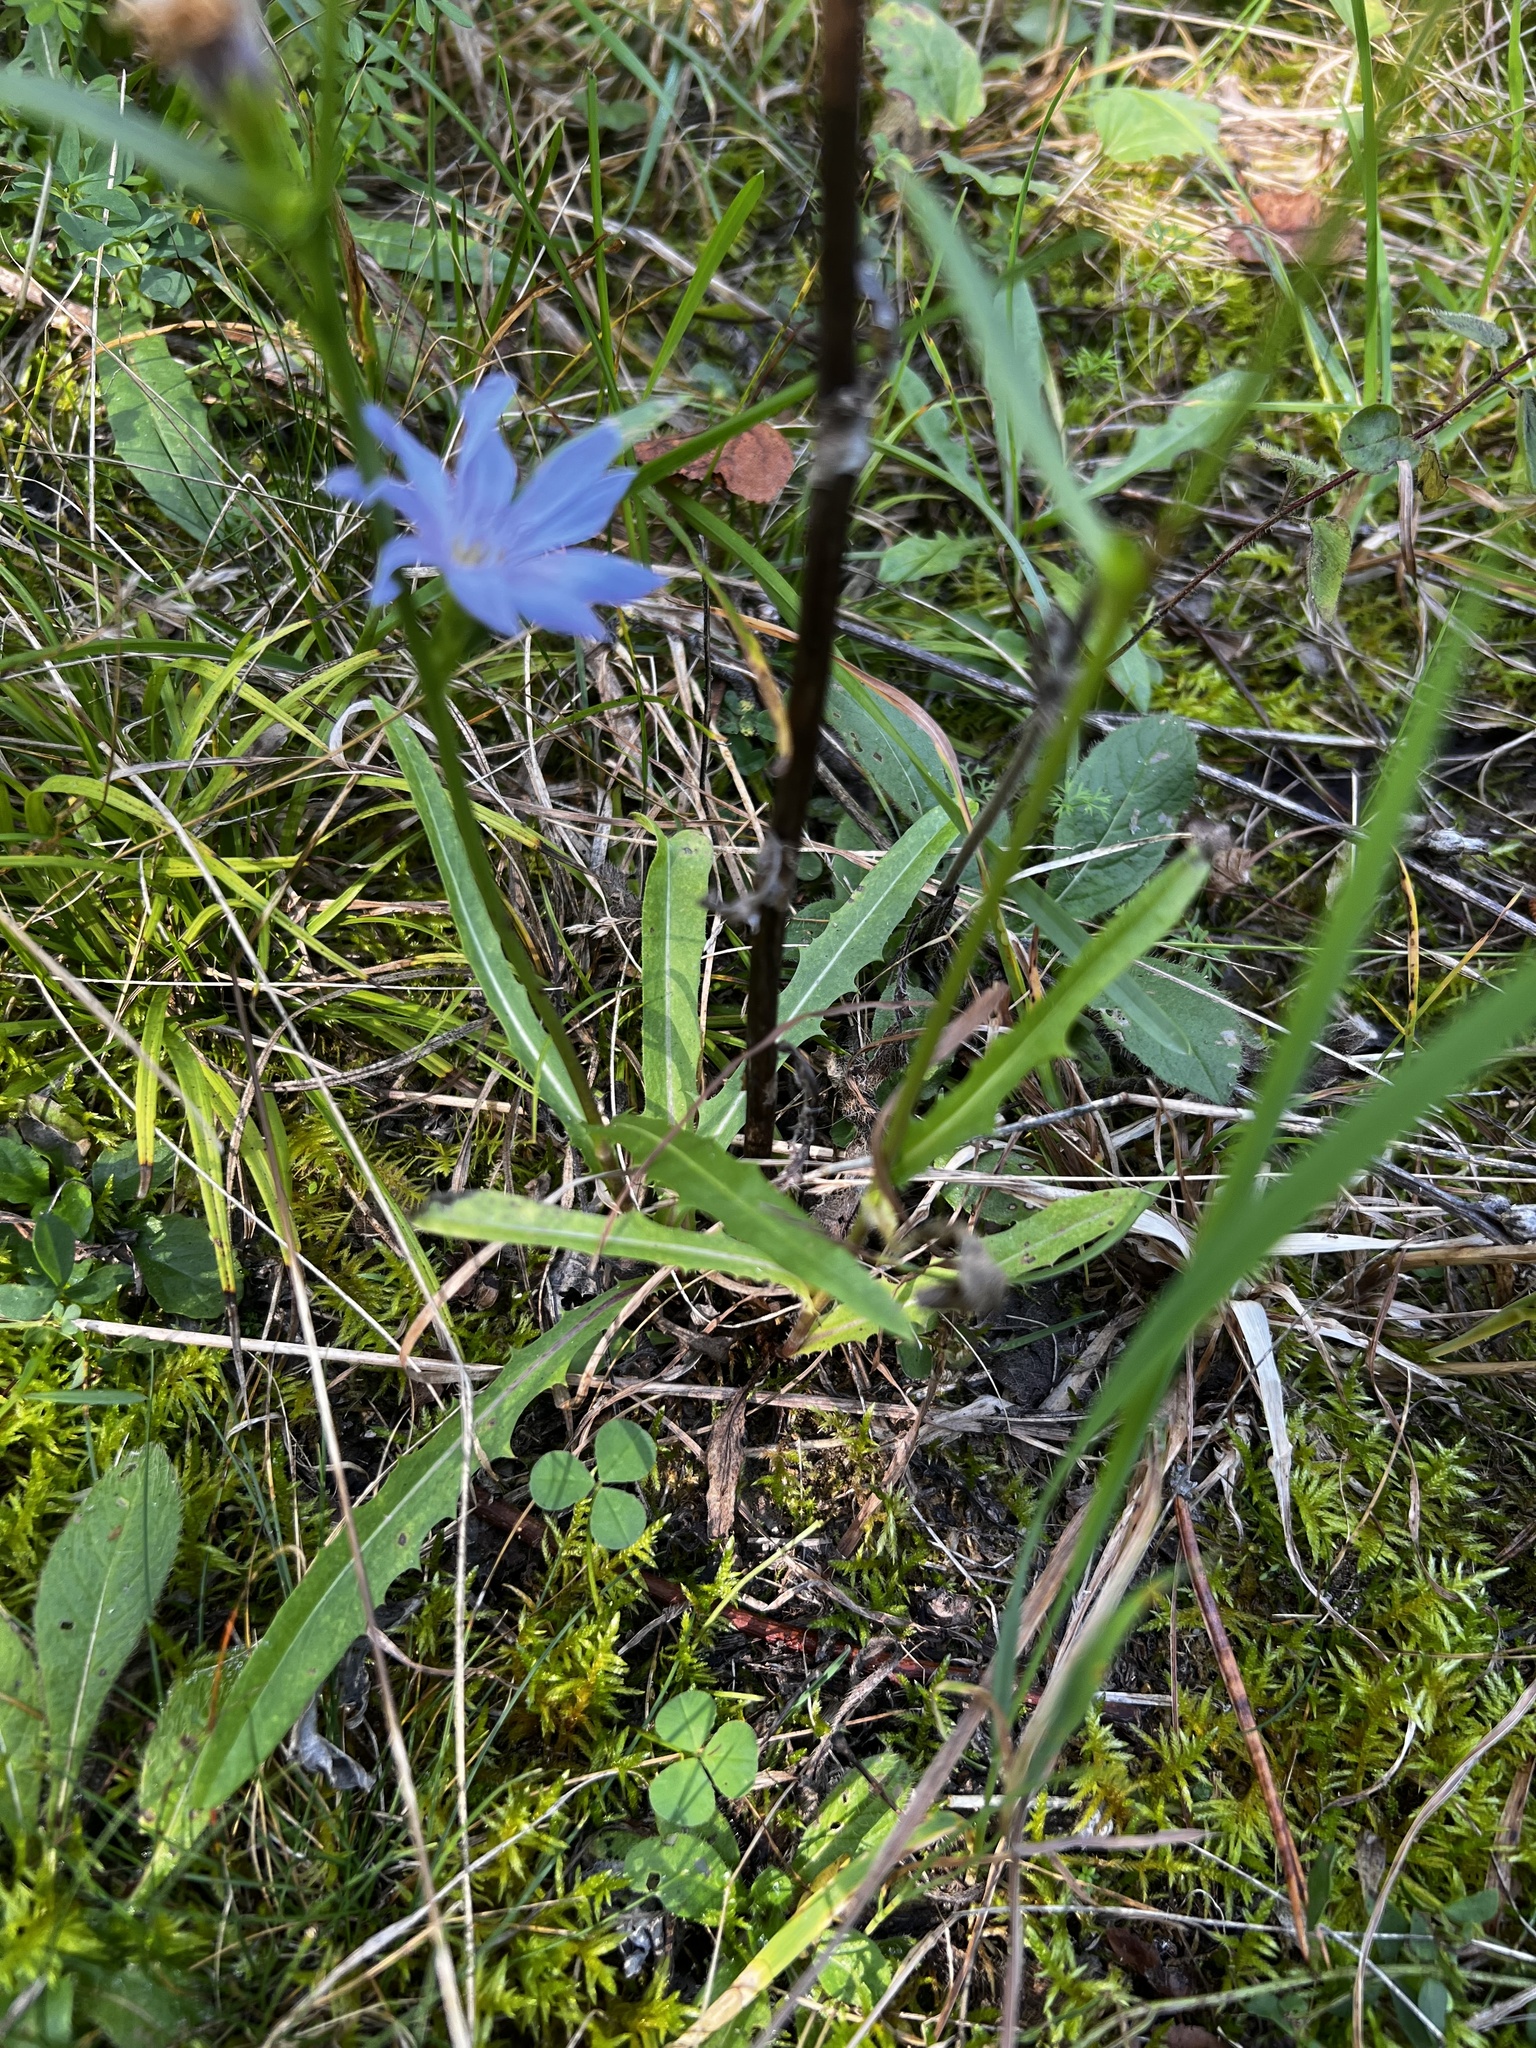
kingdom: Plantae
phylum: Tracheophyta
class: Magnoliopsida
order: Asterales
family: Asteraceae
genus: Cichorium
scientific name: Cichorium intybus
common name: Chicory
